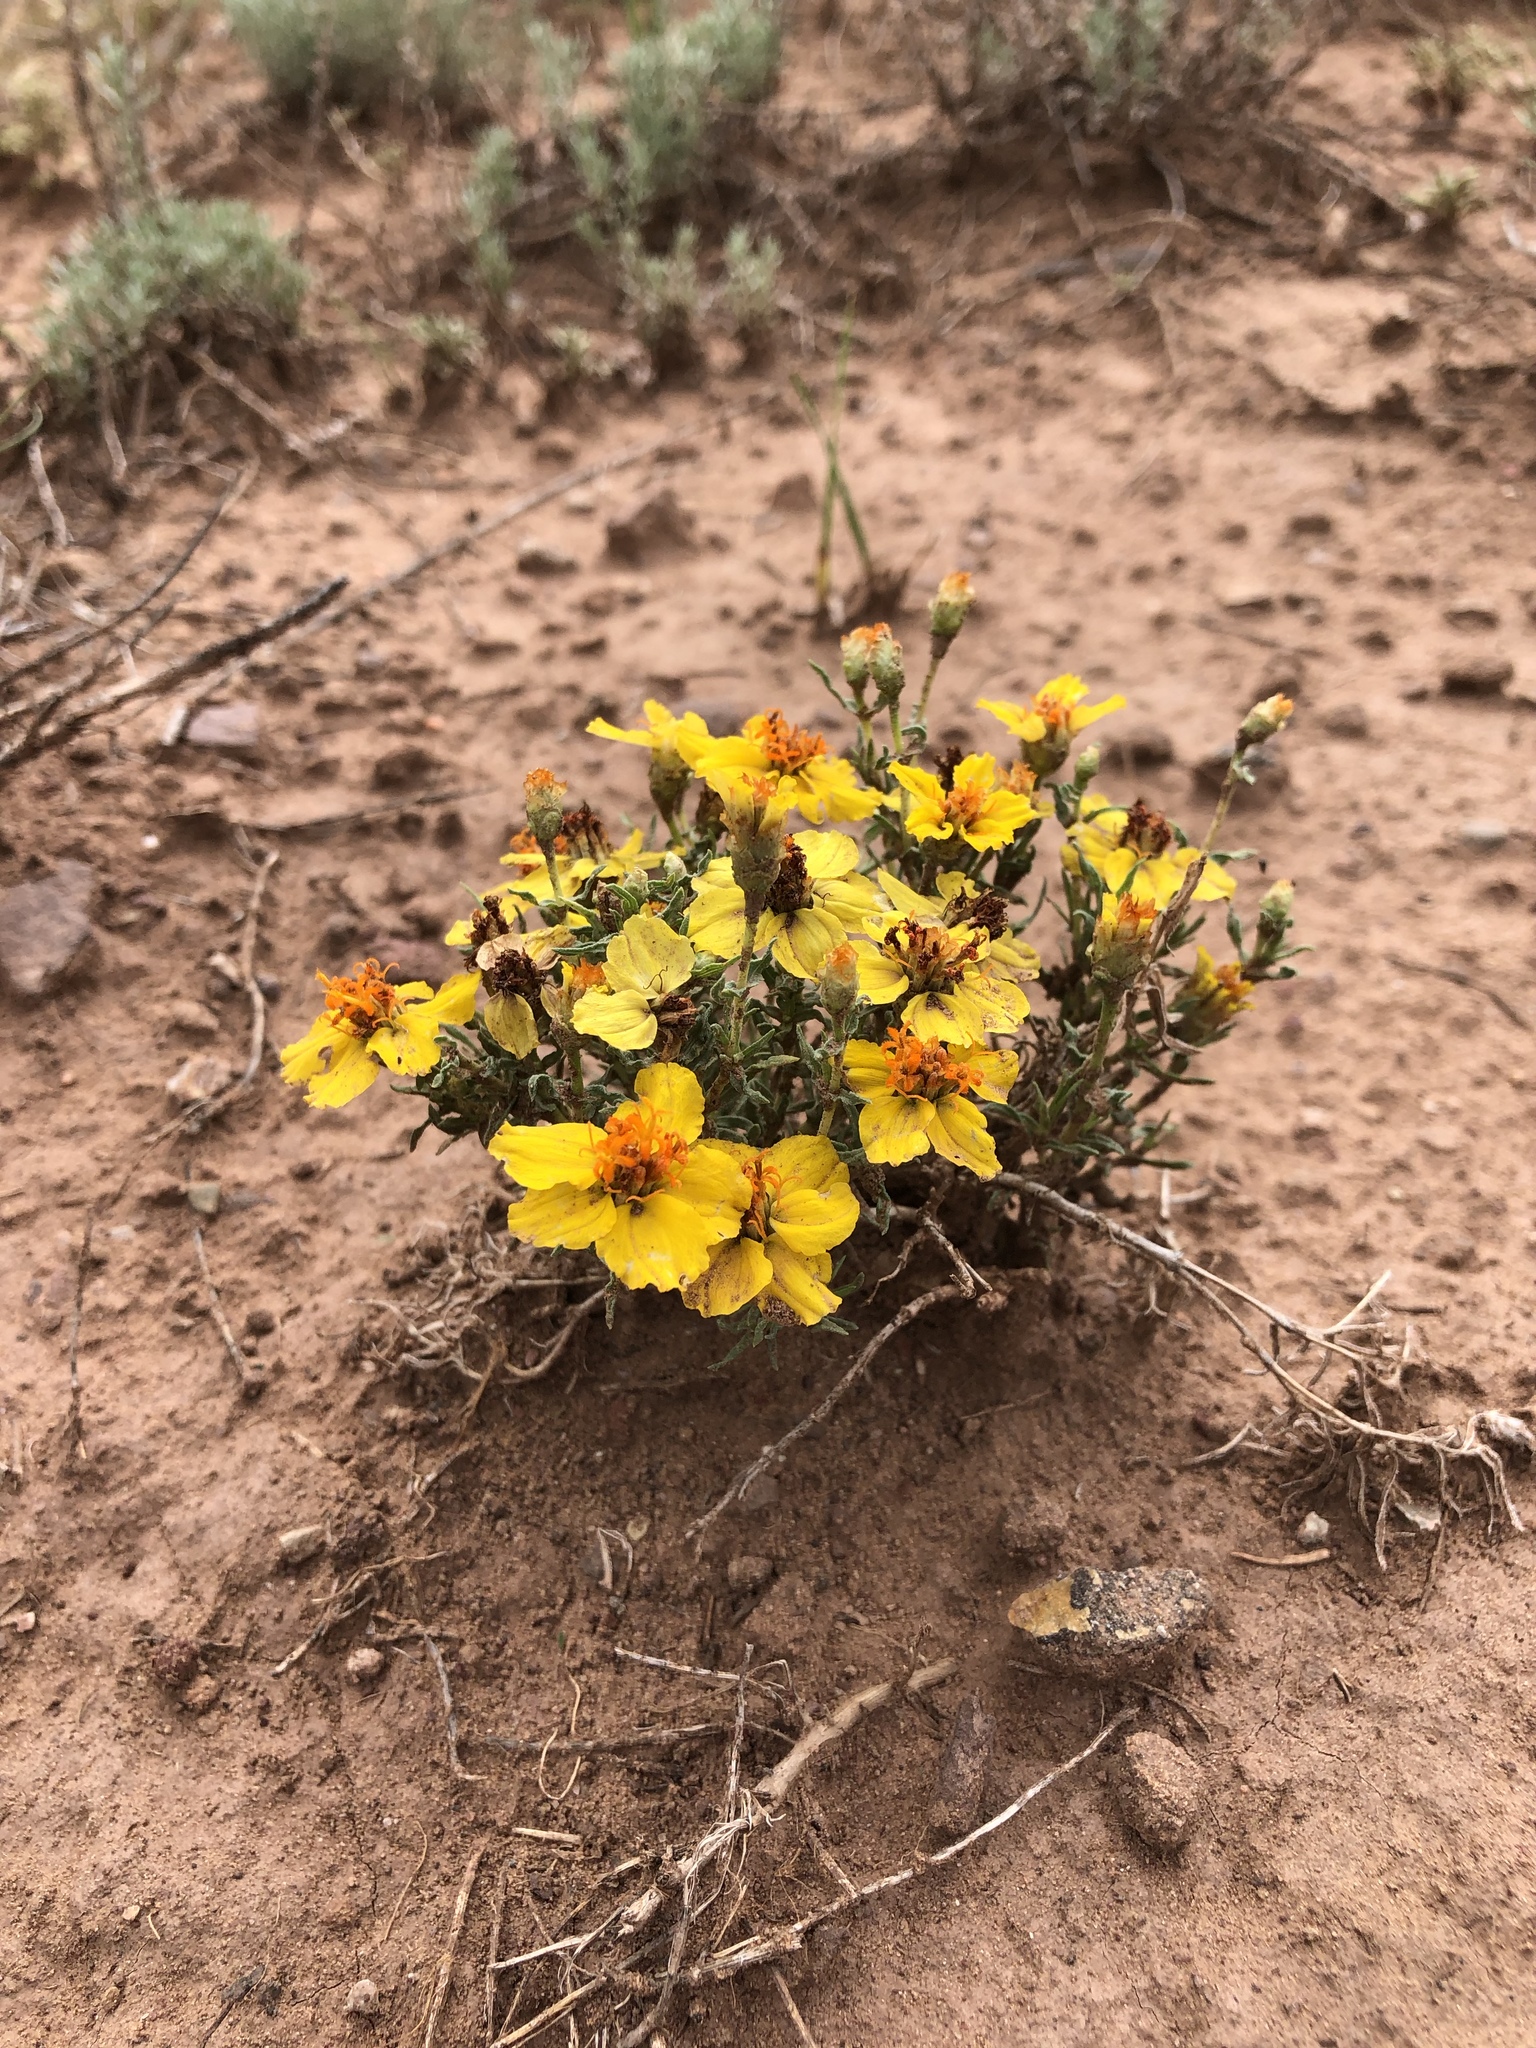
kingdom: Plantae
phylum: Tracheophyta
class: Magnoliopsida
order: Asterales
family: Asteraceae
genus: Zinnia
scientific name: Zinnia grandiflora
